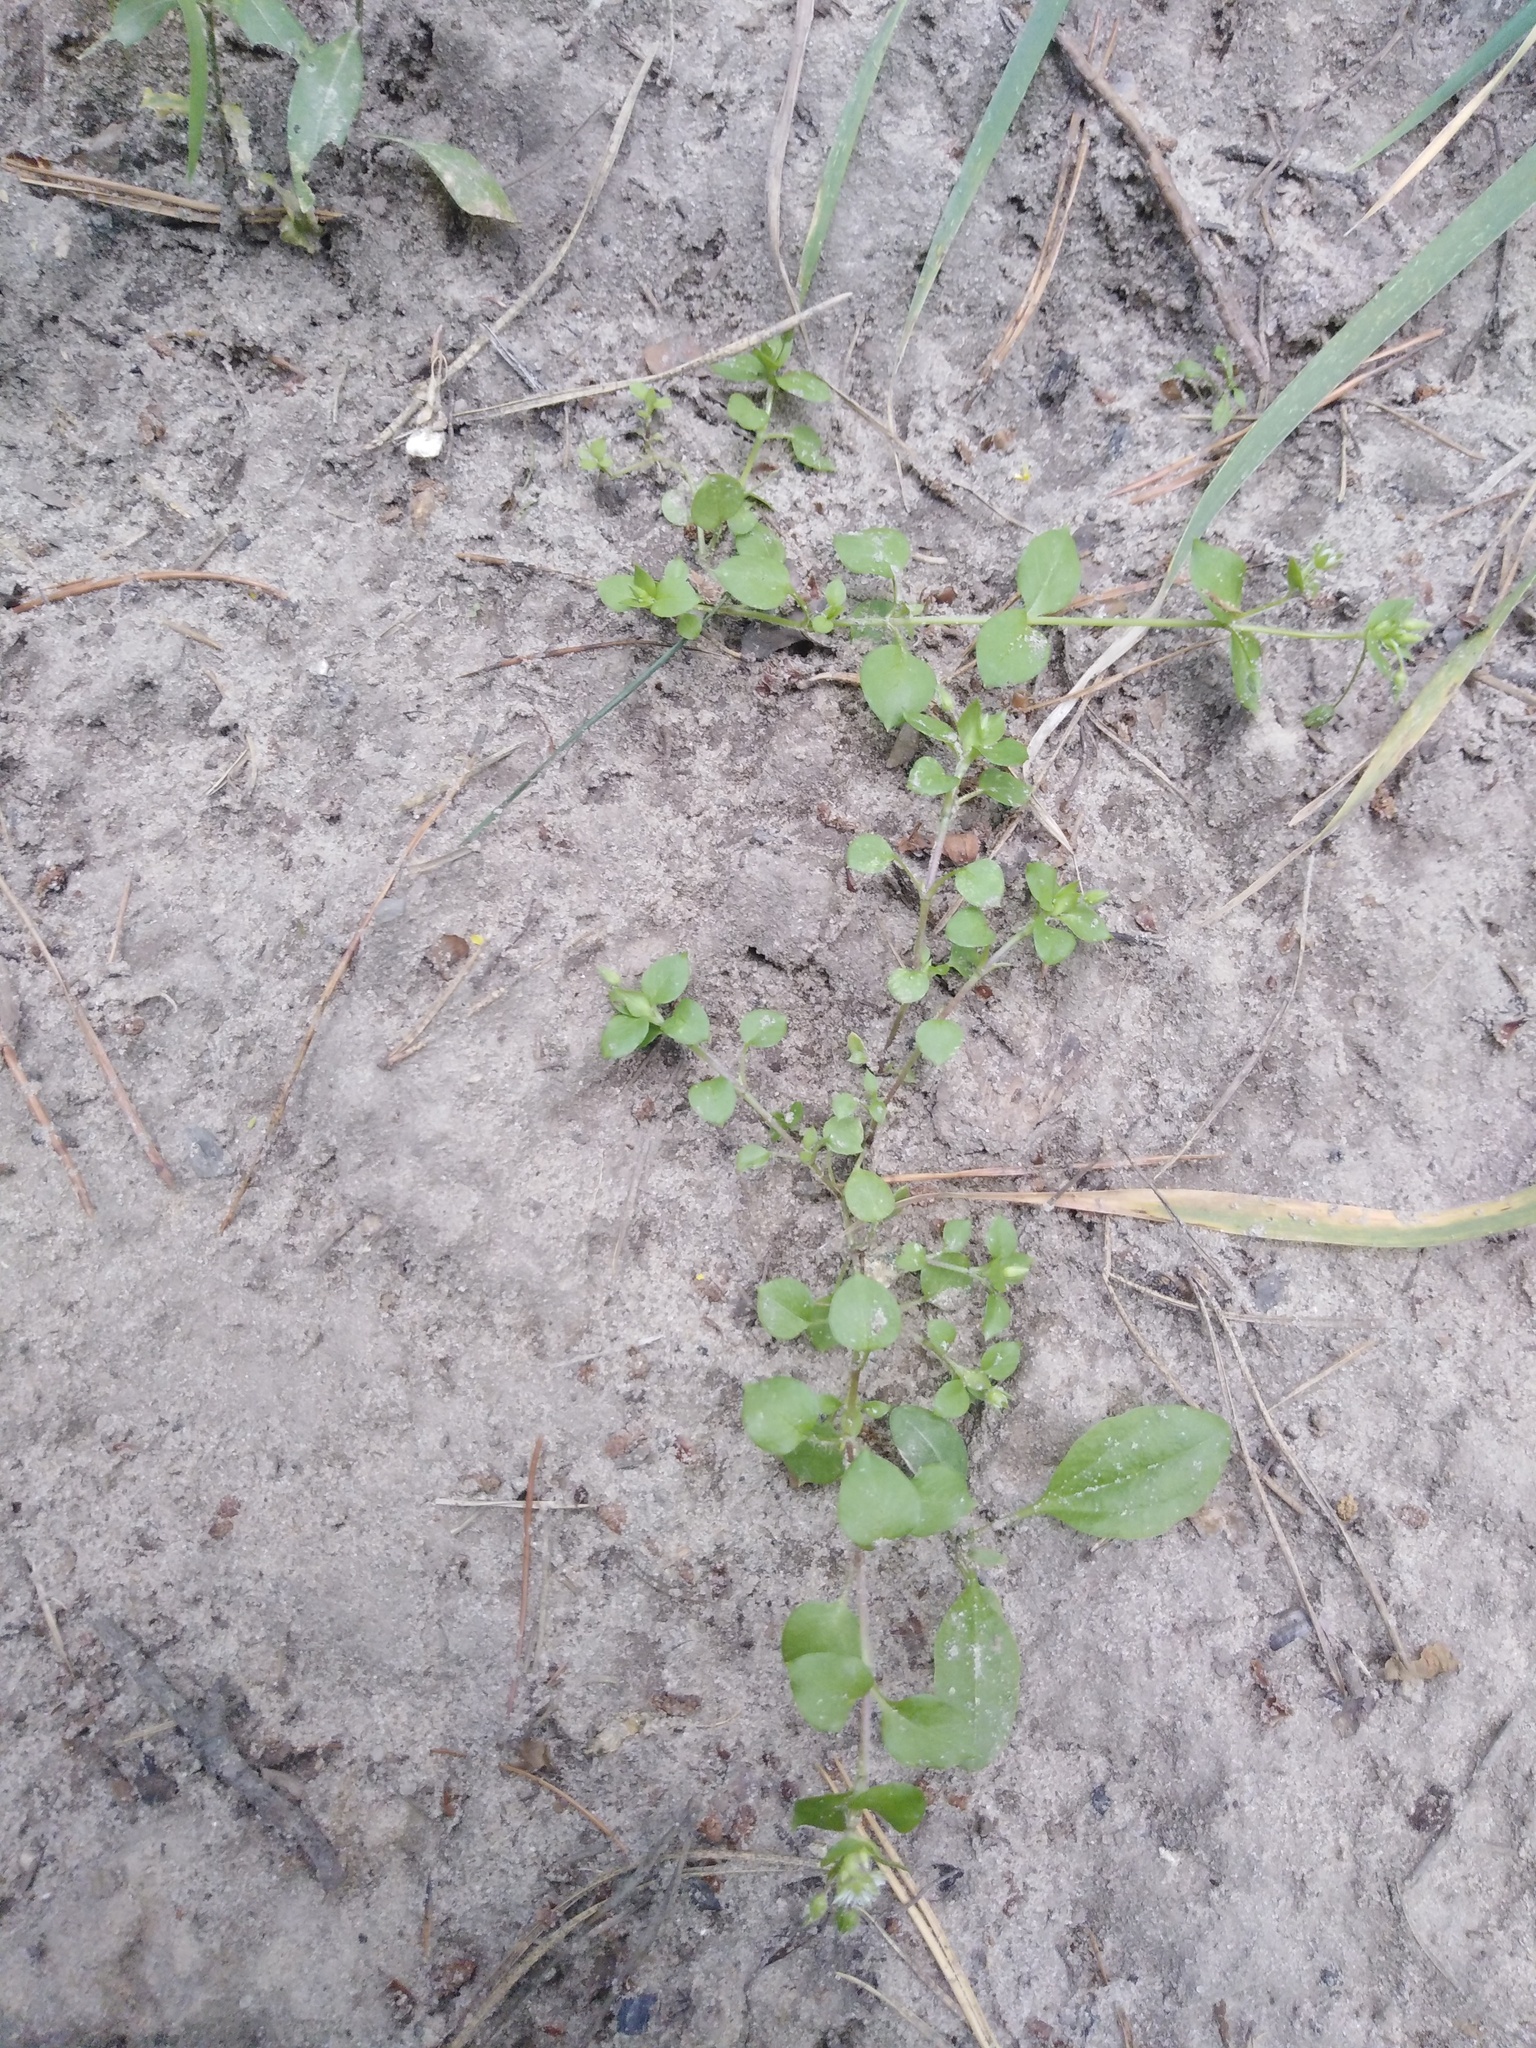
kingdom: Plantae
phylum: Tracheophyta
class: Magnoliopsida
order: Caryophyllales
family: Caryophyllaceae
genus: Stellaria
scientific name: Stellaria media
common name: Common chickweed
